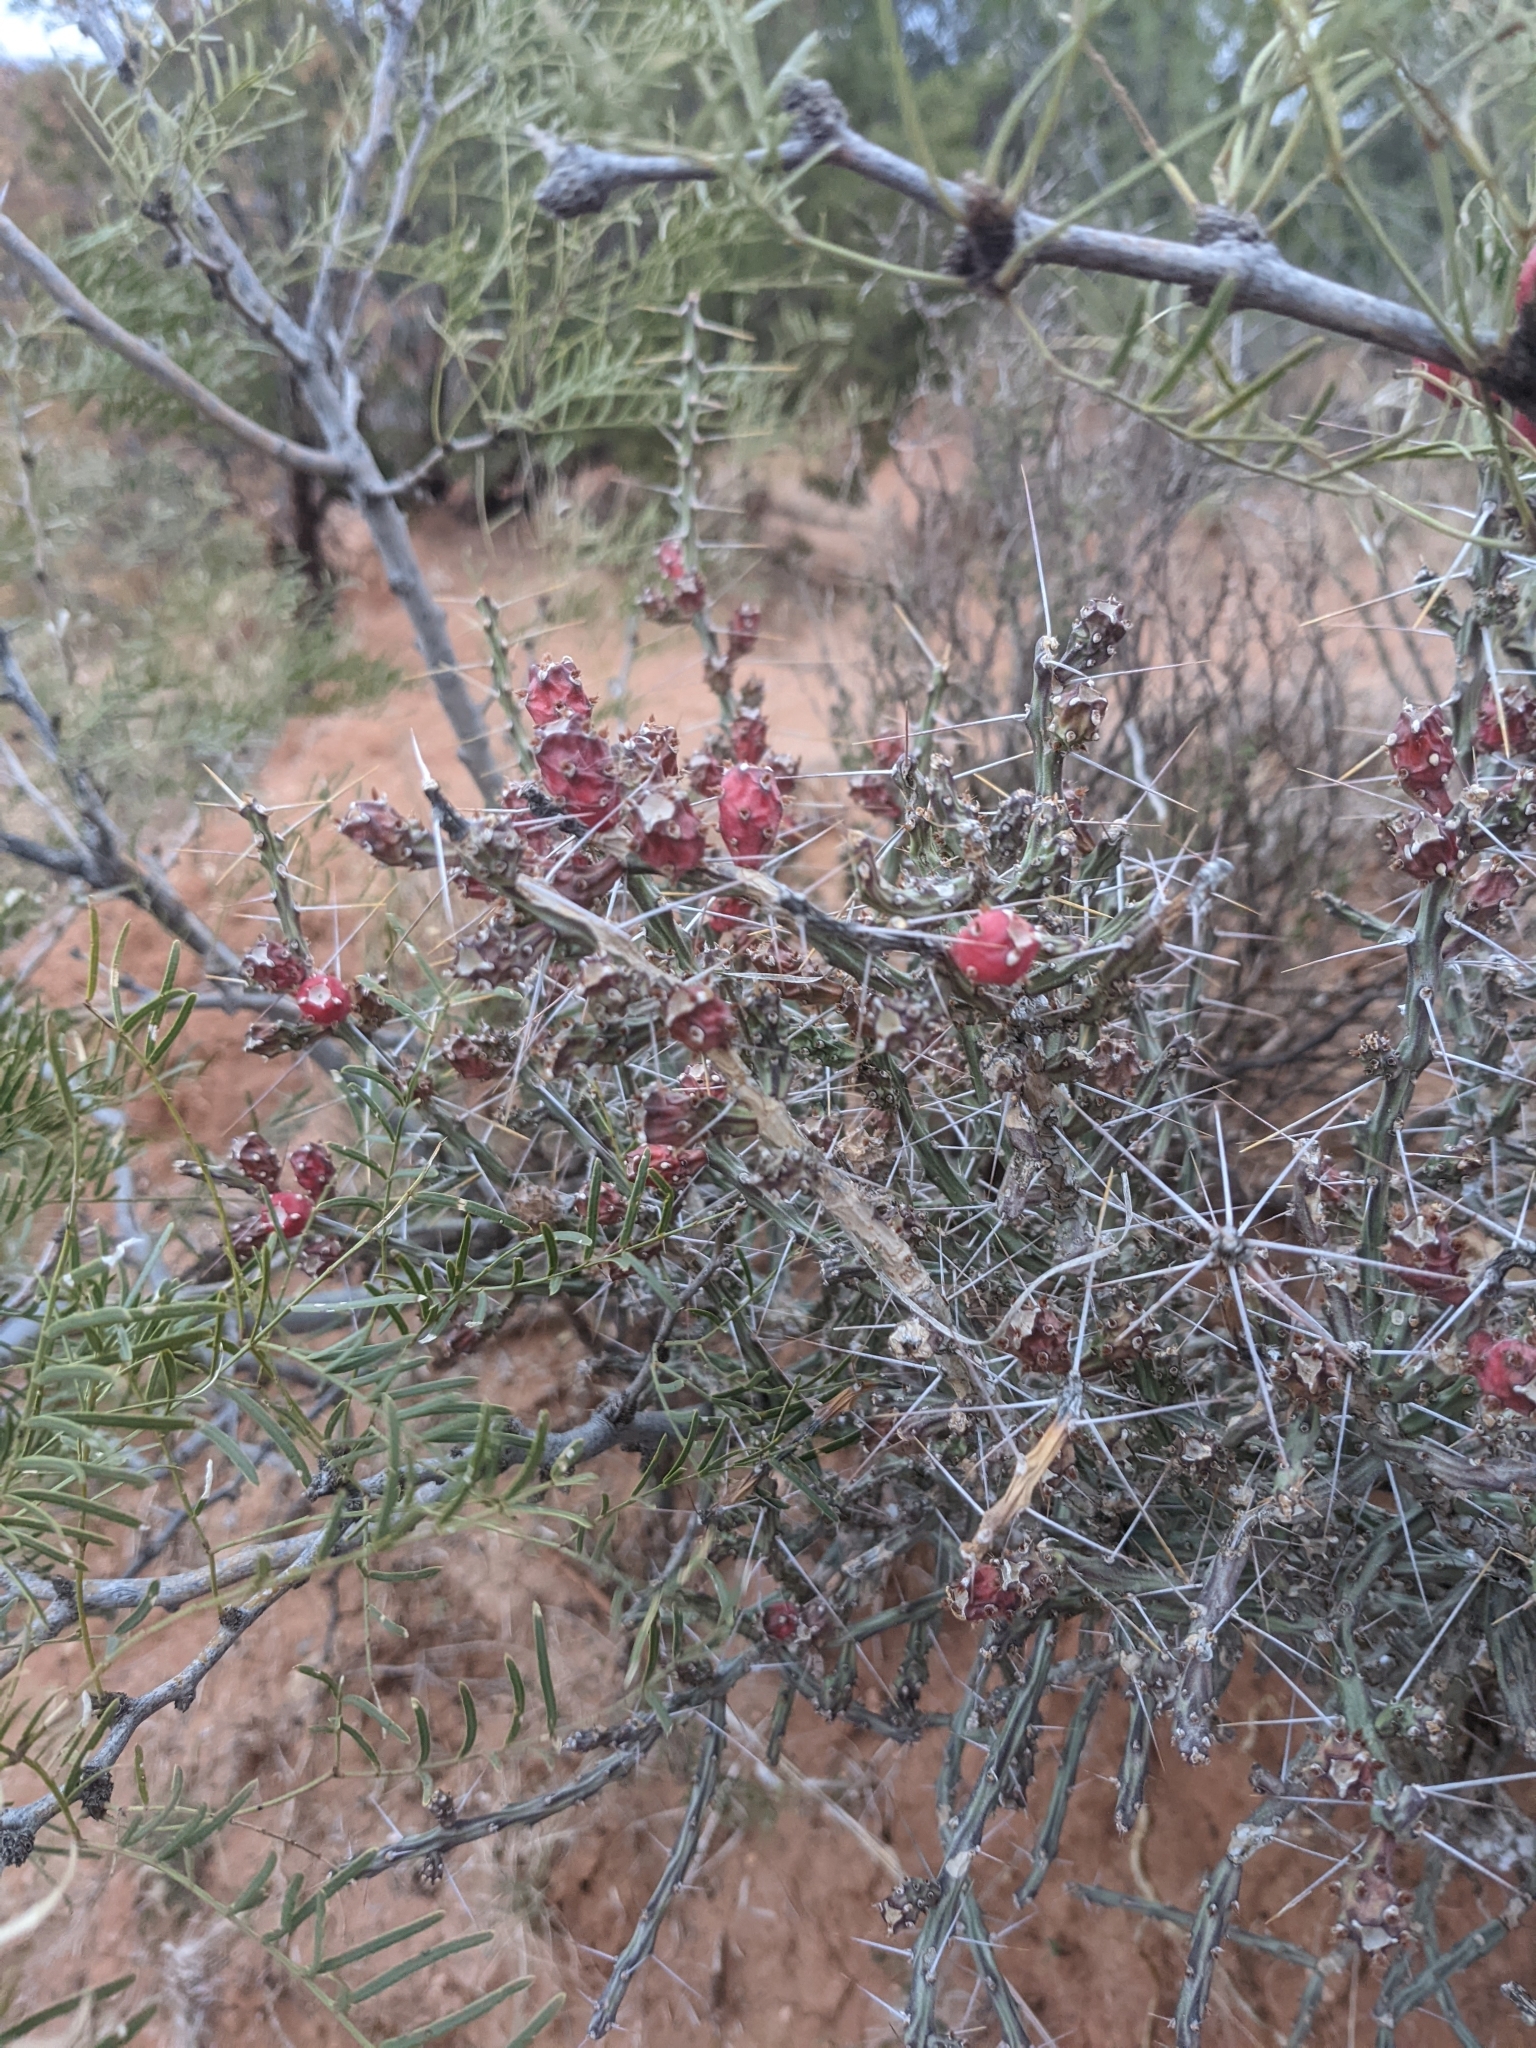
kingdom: Plantae
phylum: Tracheophyta
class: Magnoliopsida
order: Caryophyllales
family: Cactaceae
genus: Cylindropuntia
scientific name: Cylindropuntia leptocaulis
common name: Christmas cactus
